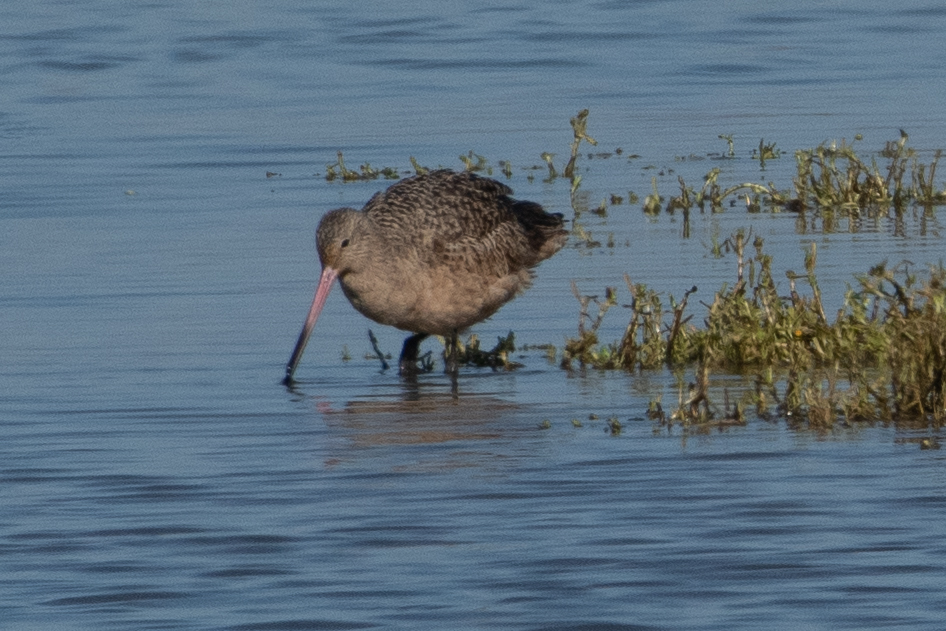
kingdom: Animalia
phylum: Chordata
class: Aves
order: Charadriiformes
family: Scolopacidae
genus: Limosa
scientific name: Limosa fedoa
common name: Marbled godwit
